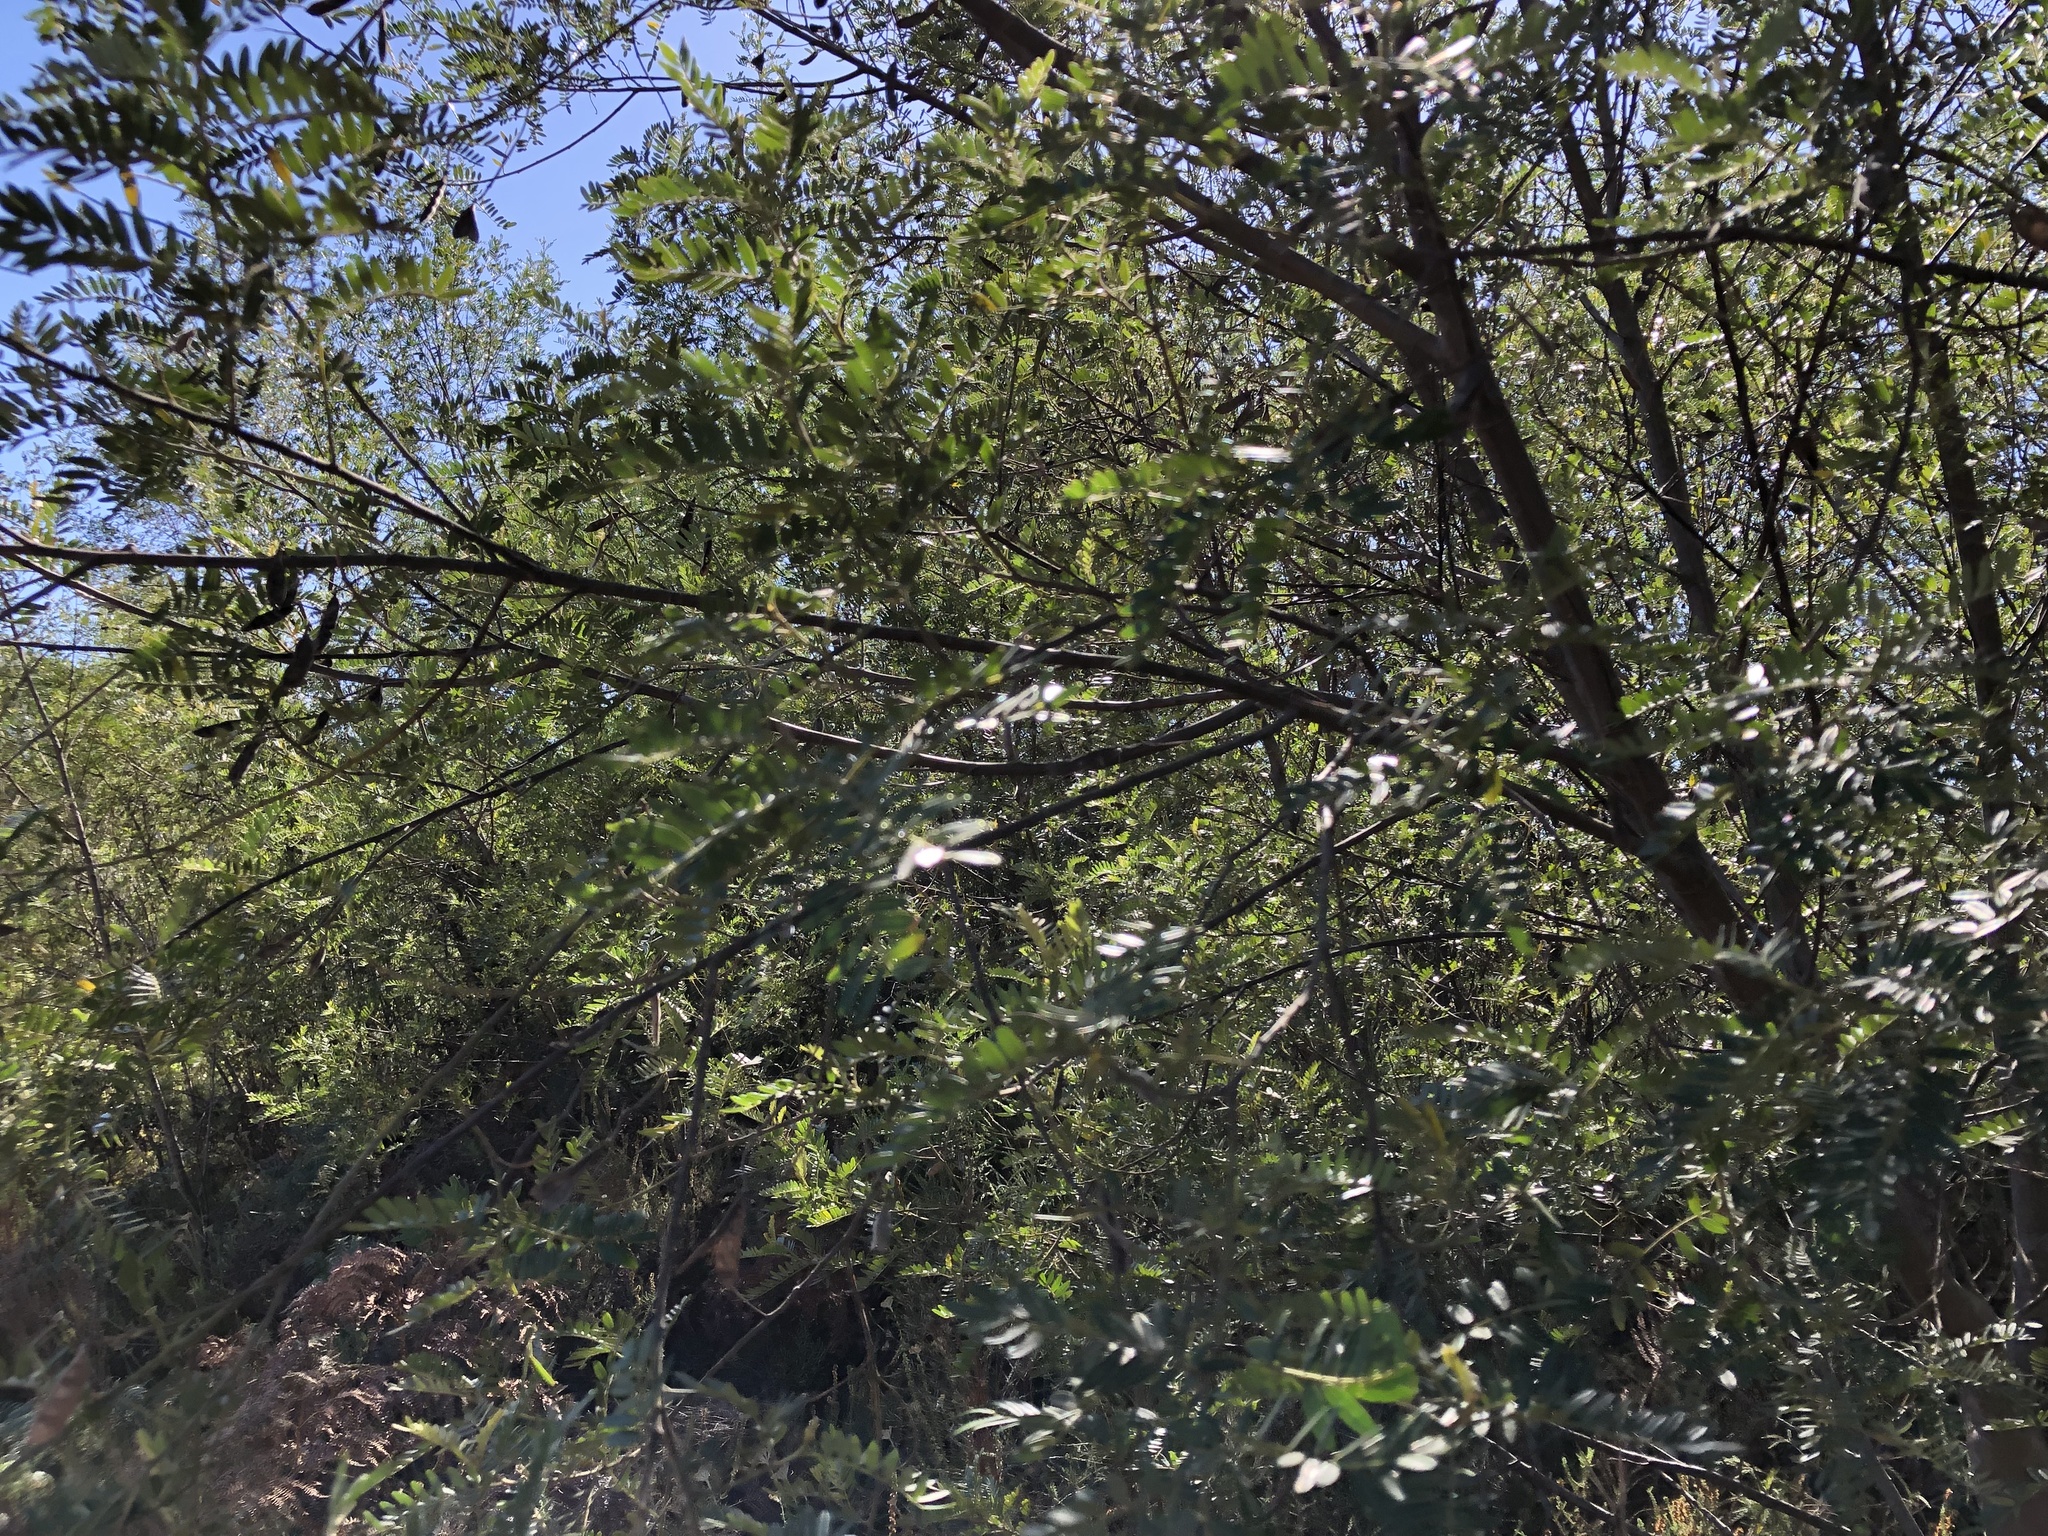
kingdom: Plantae
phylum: Tracheophyta
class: Magnoliopsida
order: Fabales
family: Fabaceae
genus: Virgilia
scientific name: Virgilia oroboides
